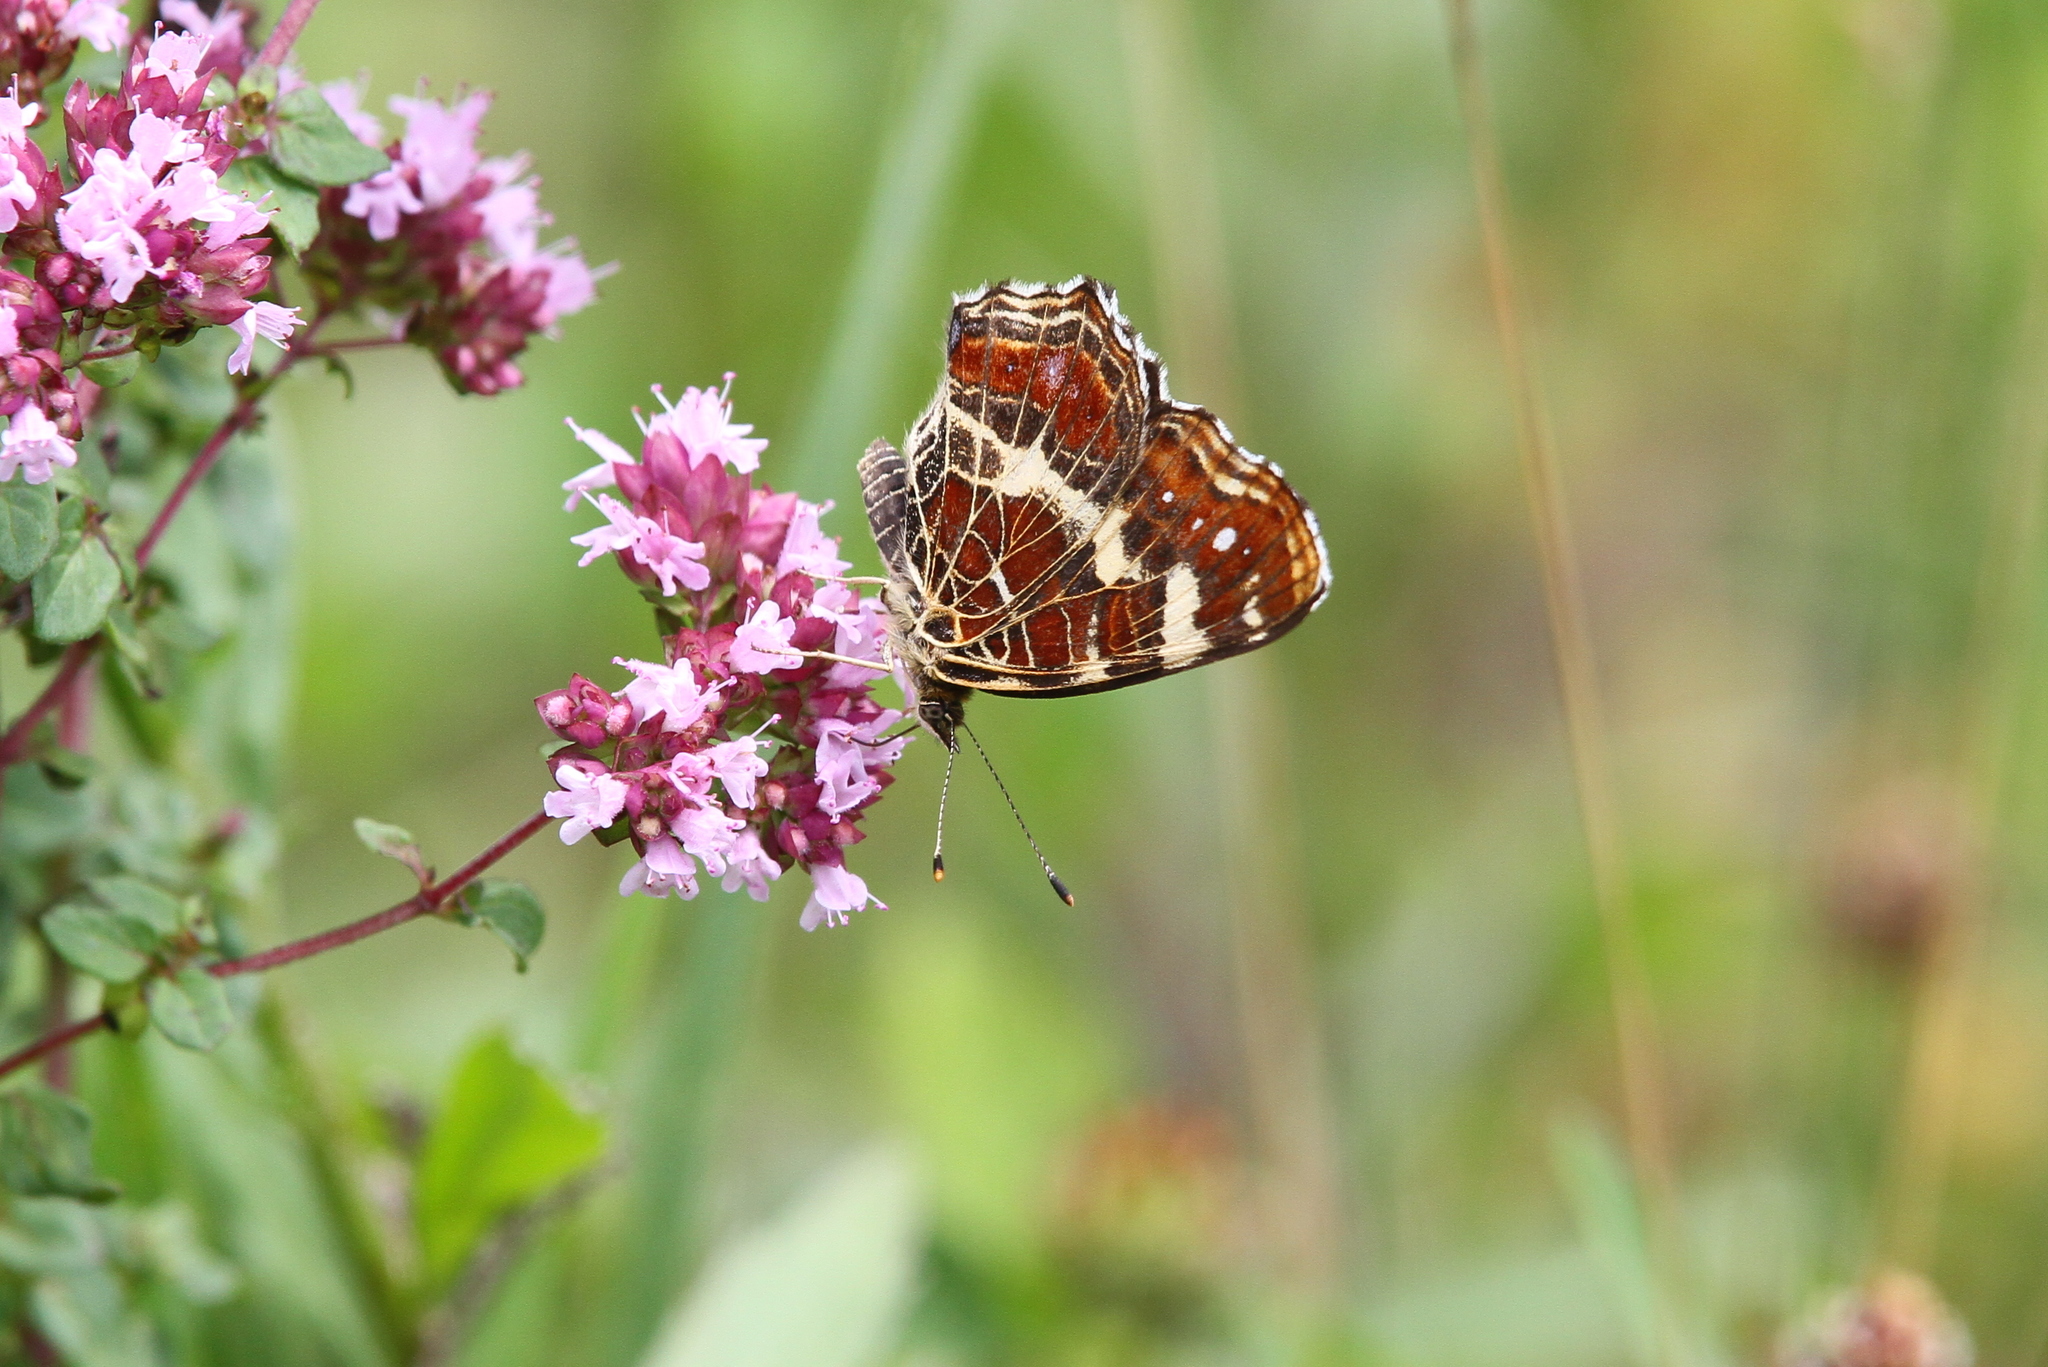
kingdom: Animalia
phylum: Arthropoda
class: Insecta
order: Lepidoptera
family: Nymphalidae
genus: Araschnia
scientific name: Araschnia levana
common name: Map butterfly
